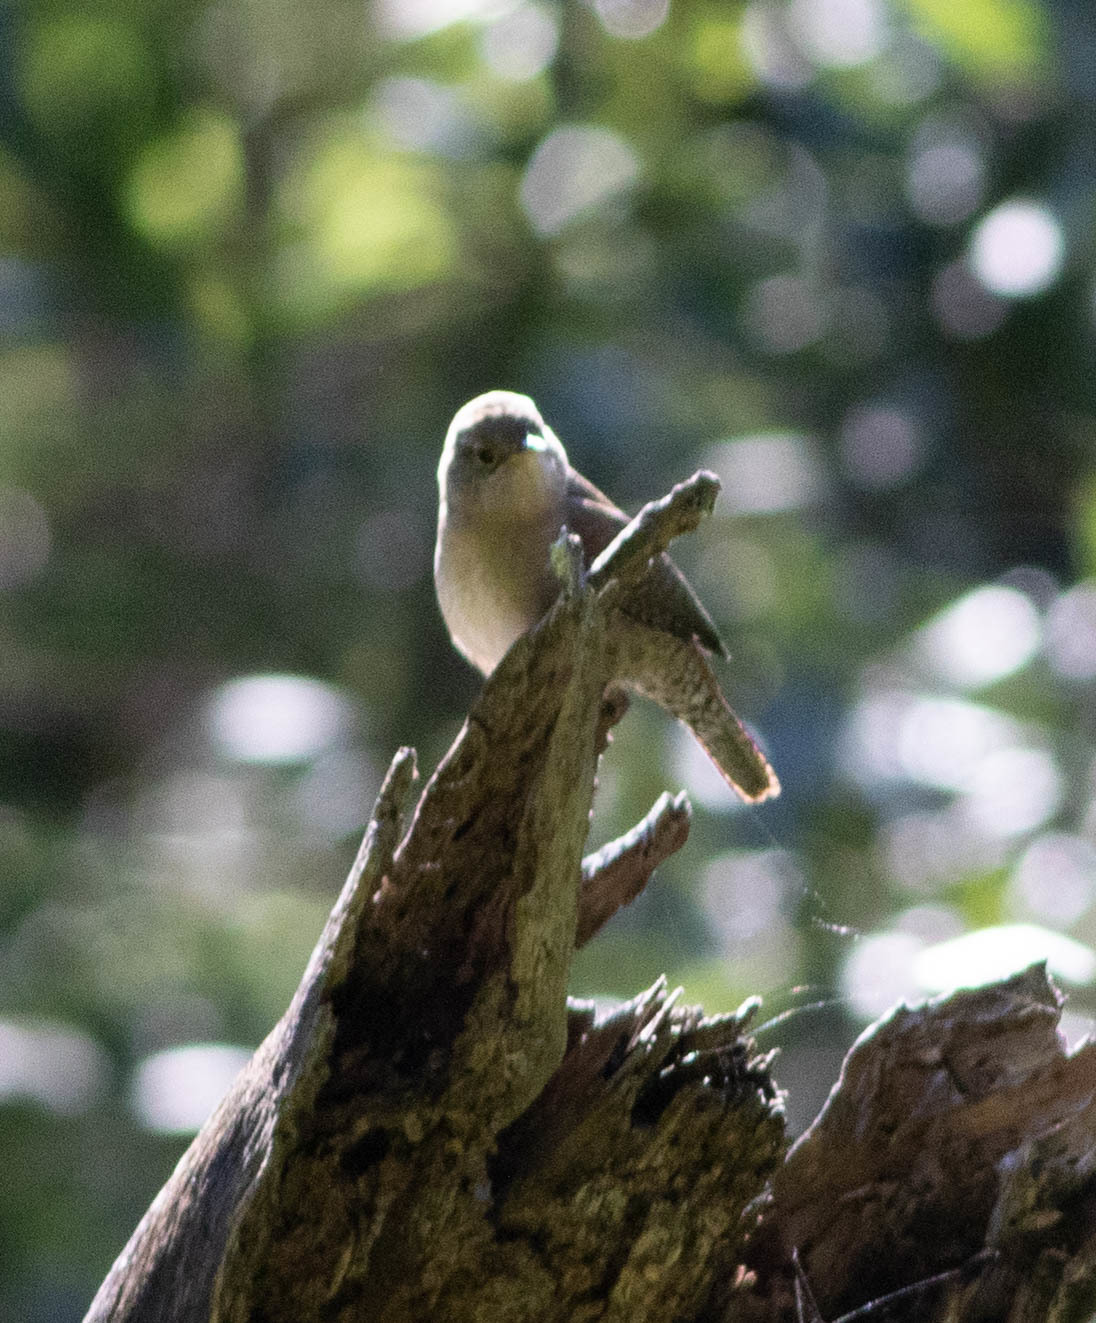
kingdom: Animalia
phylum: Chordata
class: Aves
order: Passeriformes
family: Troglodytidae
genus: Troglodytes
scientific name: Troglodytes aedon
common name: House wren
